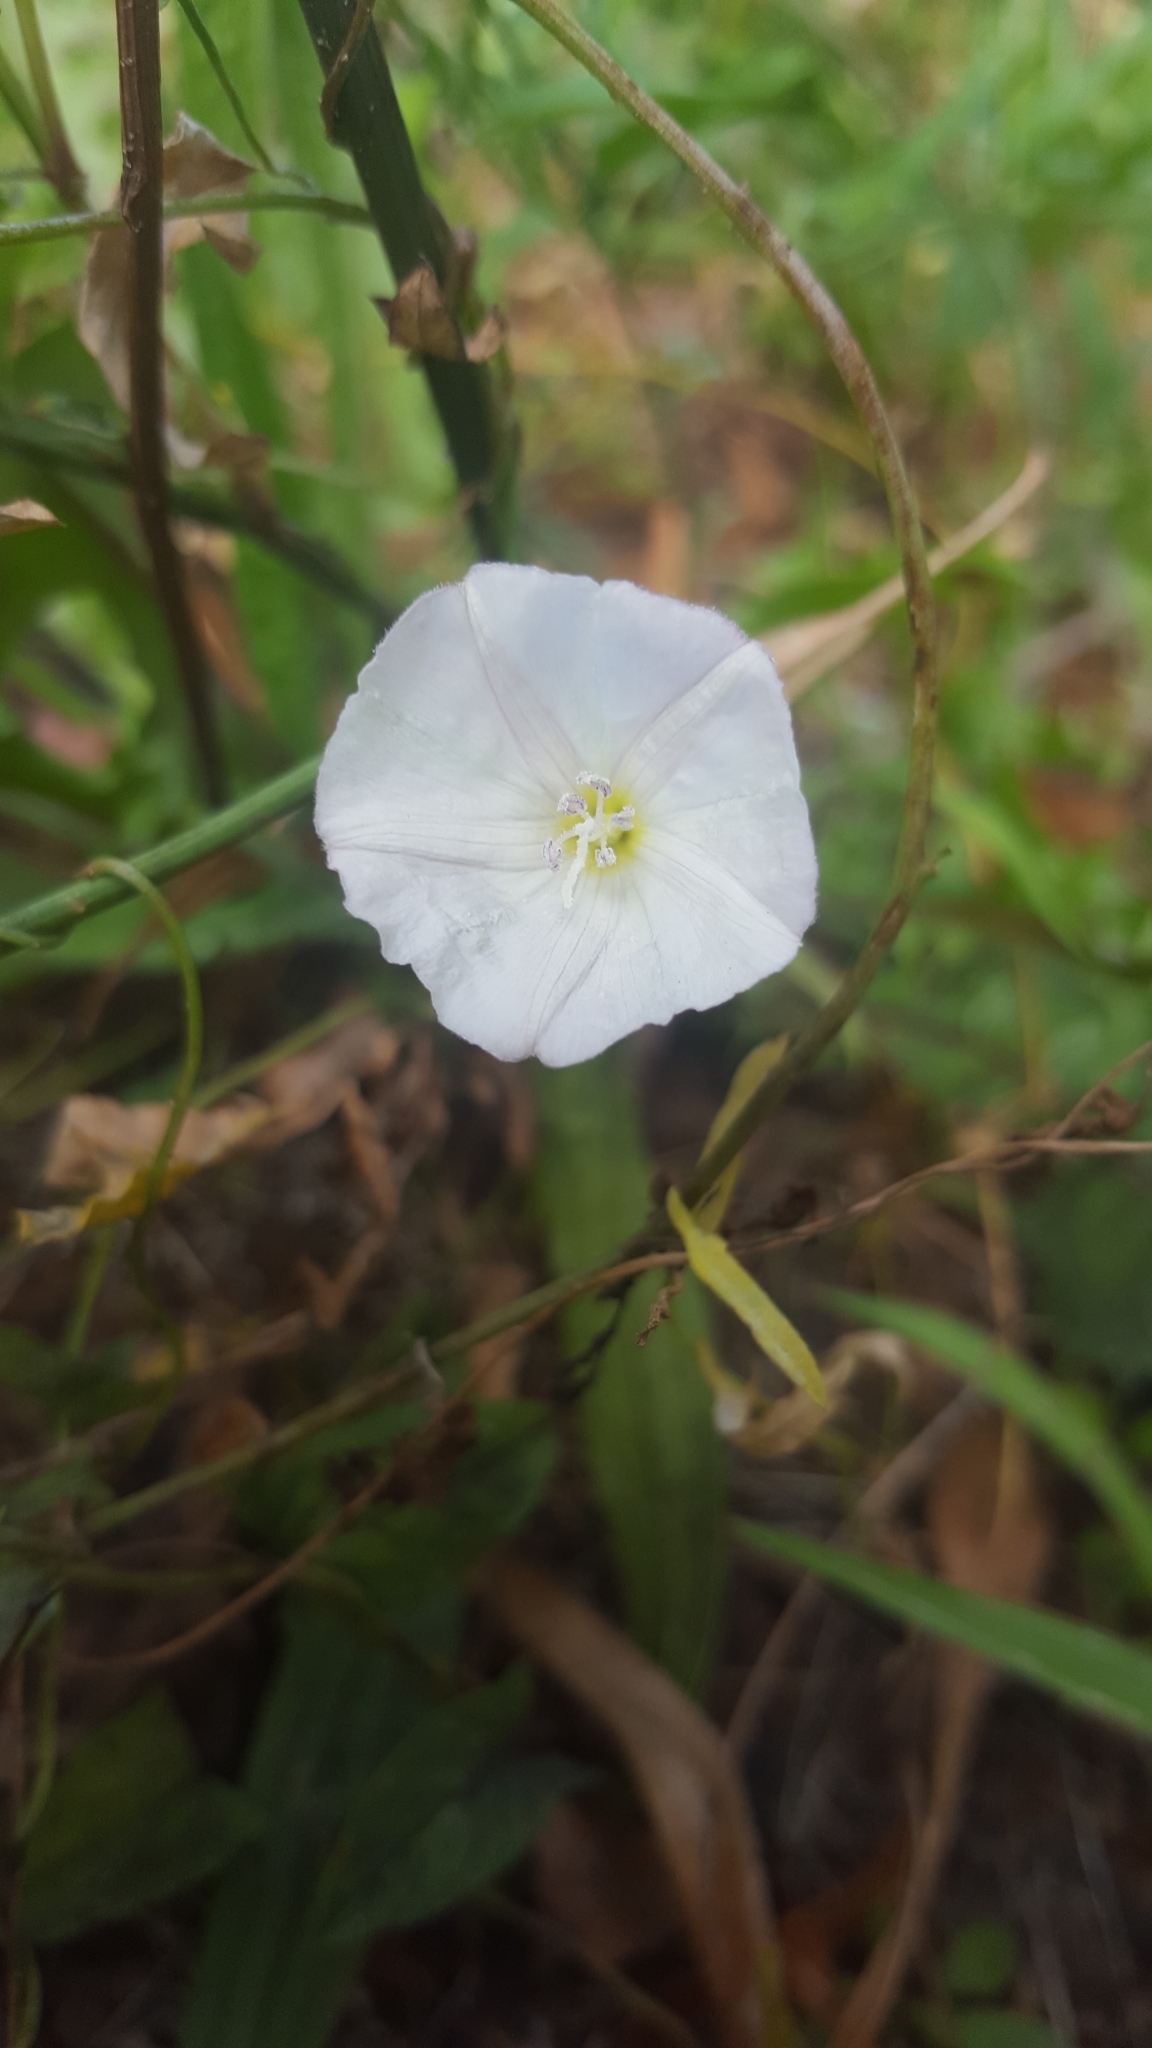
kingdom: Plantae
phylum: Tracheophyta
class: Magnoliopsida
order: Solanales
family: Convolvulaceae
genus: Convolvulus
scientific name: Convolvulus arvensis
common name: Field bindweed
